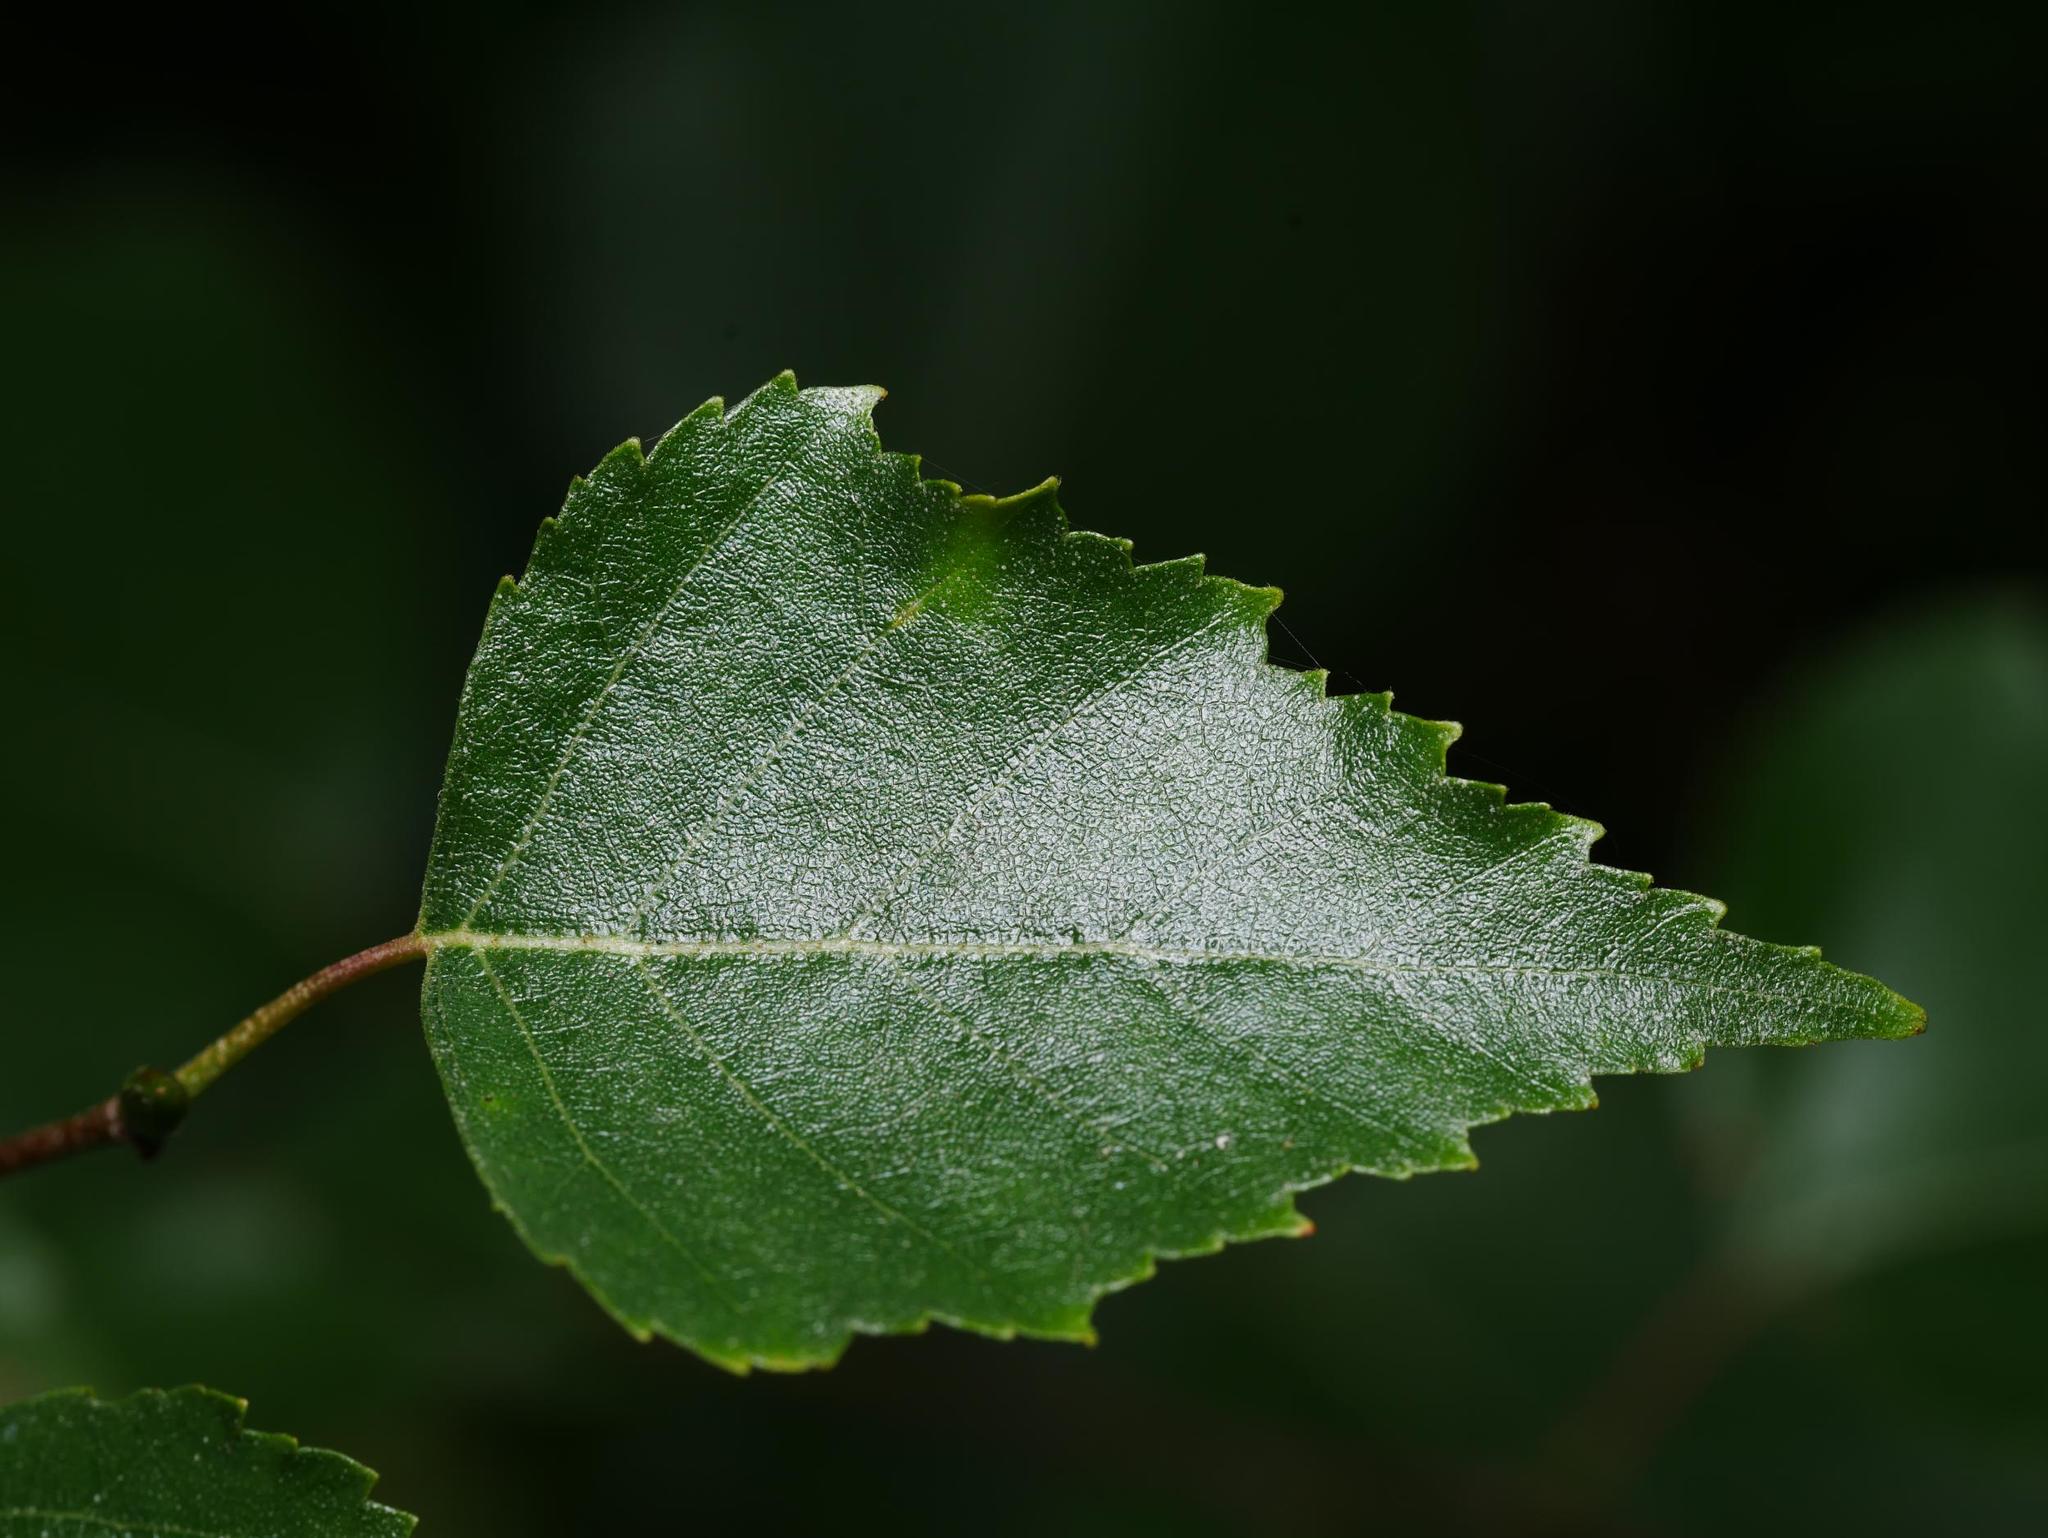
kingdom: Plantae
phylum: Tracheophyta
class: Magnoliopsida
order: Fagales
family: Betulaceae
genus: Betula
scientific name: Betula pendula
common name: Silver birch
